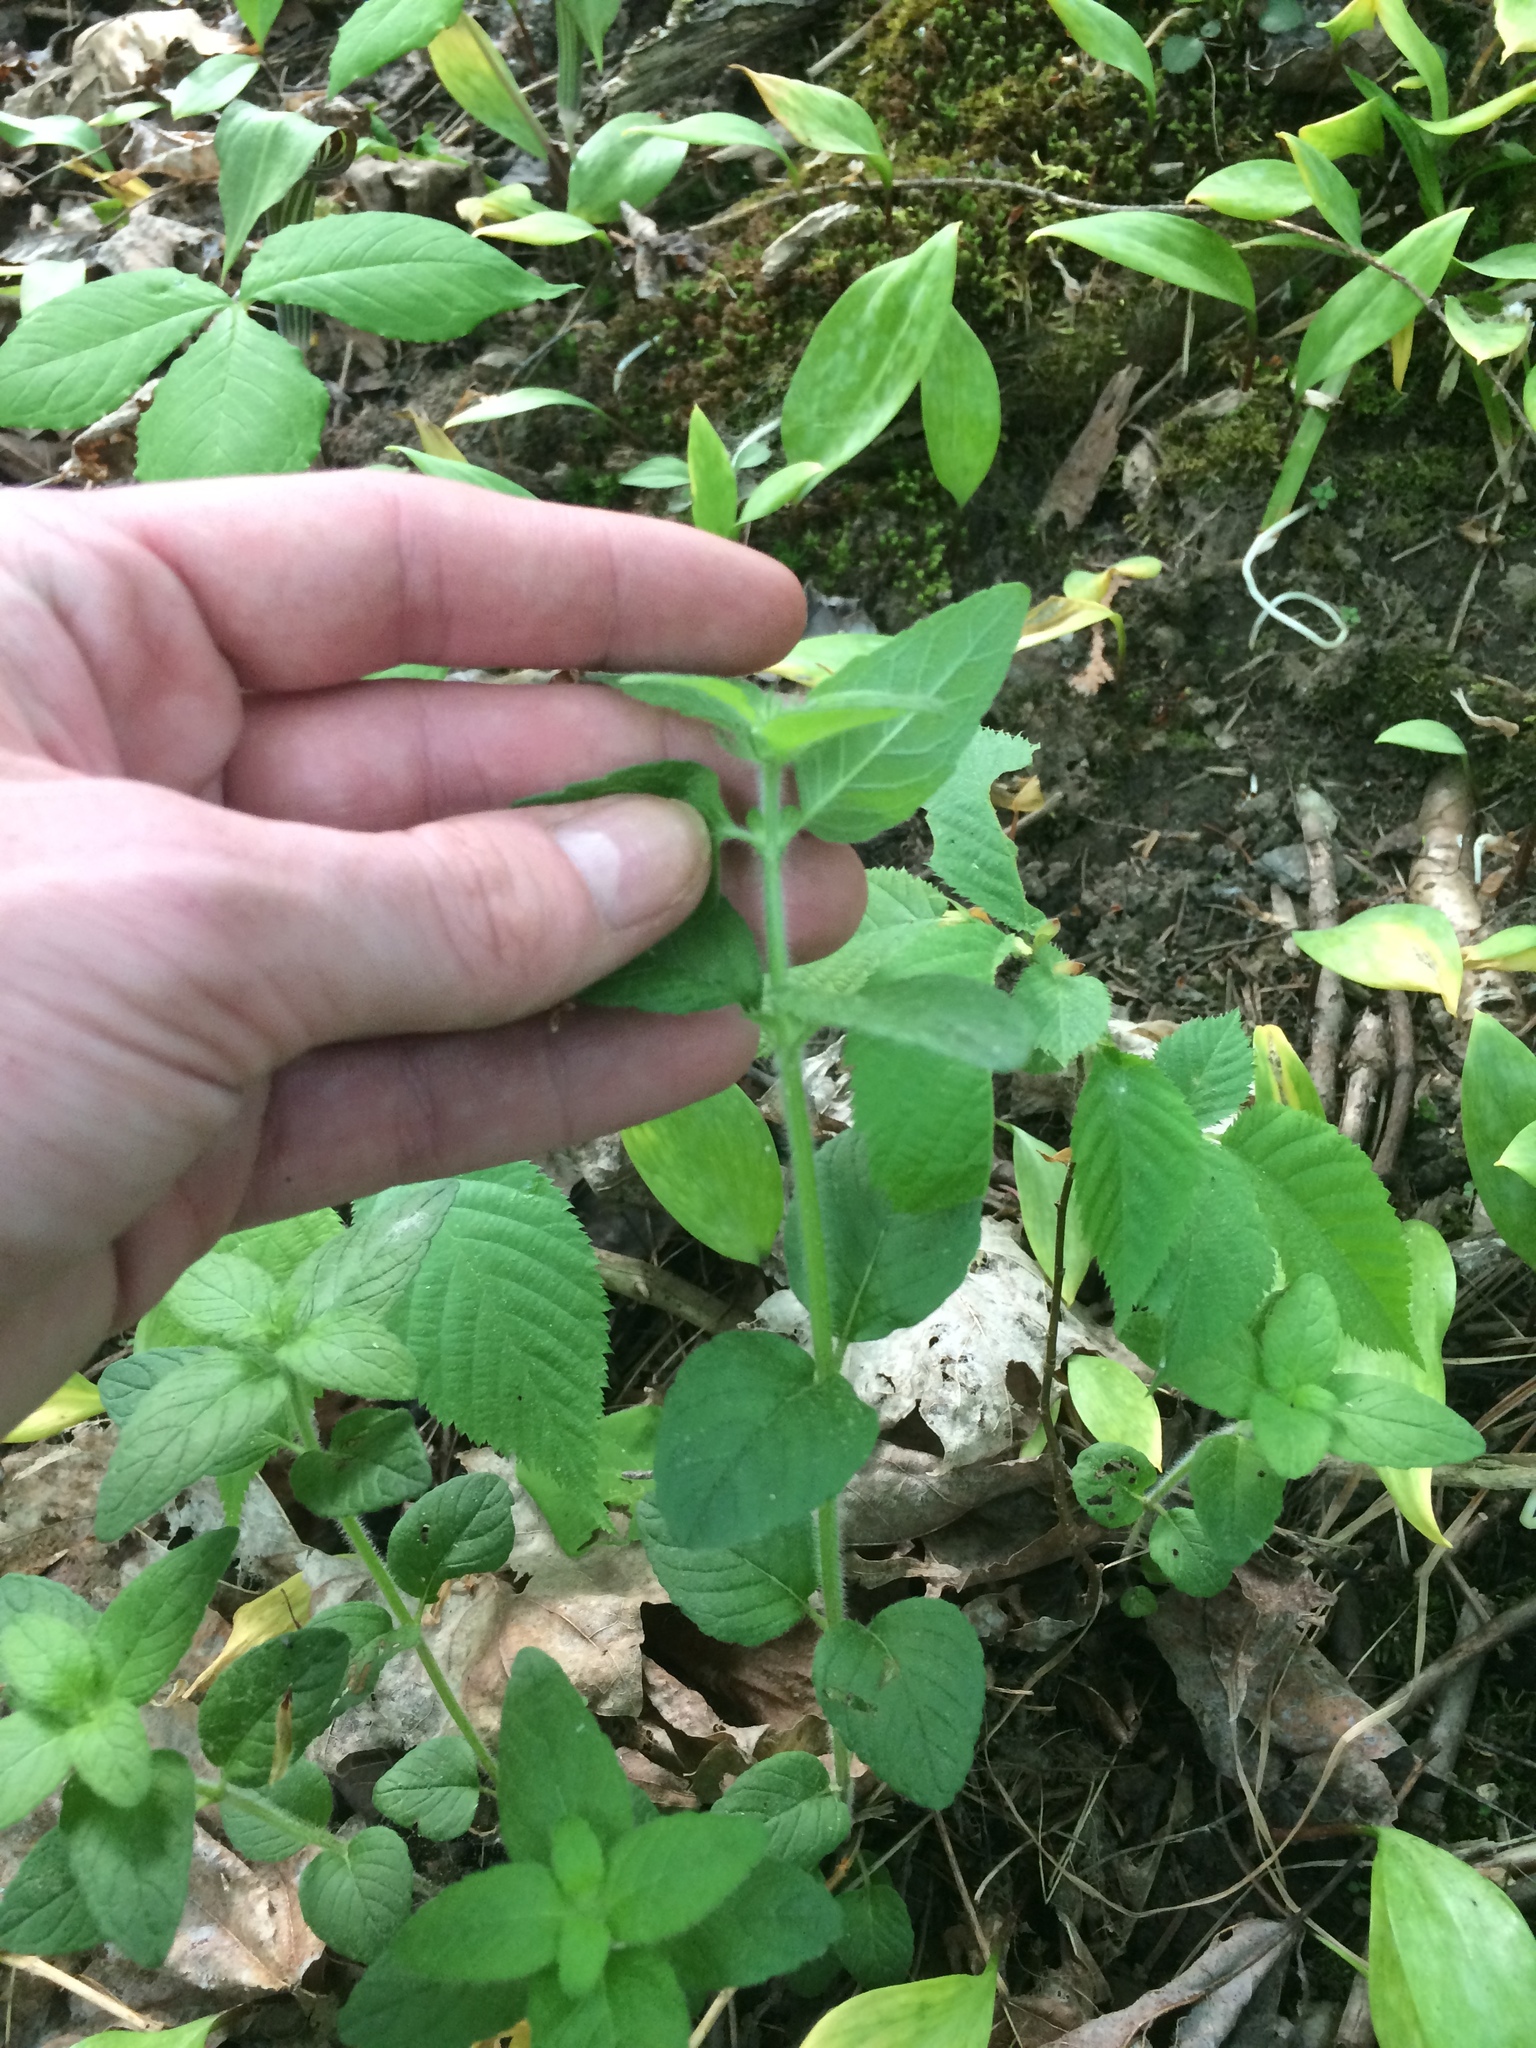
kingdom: Plantae
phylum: Tracheophyta
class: Magnoliopsida
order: Lamiales
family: Lamiaceae
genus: Clinopodium
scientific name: Clinopodium vulgare
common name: Wild basil
